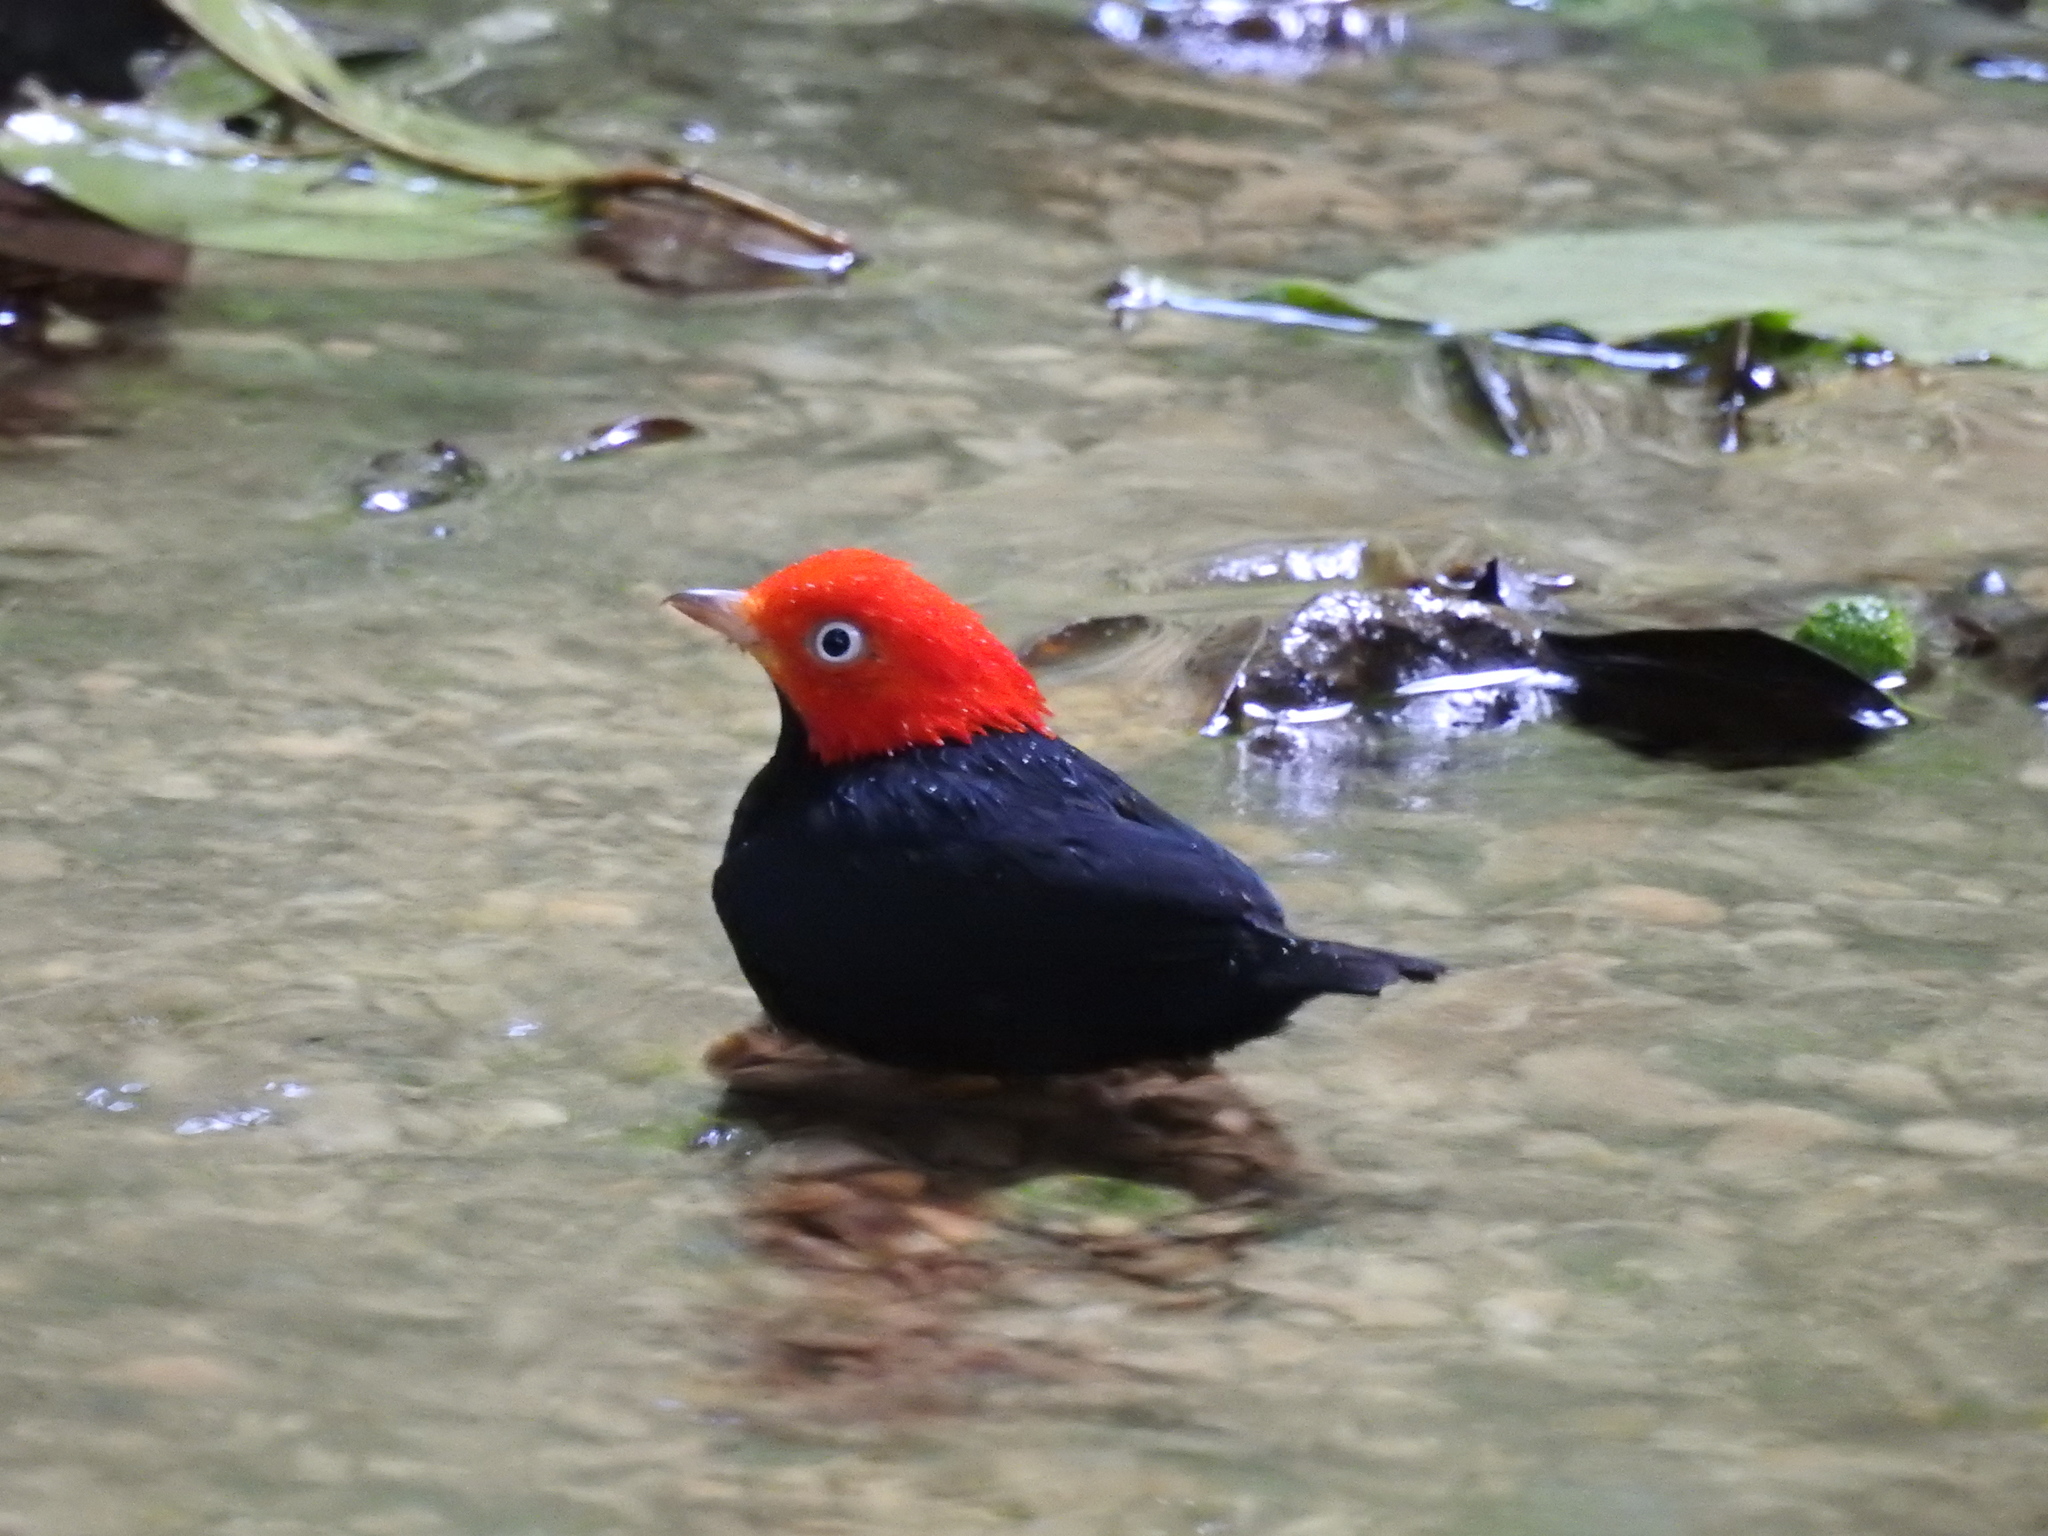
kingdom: Animalia
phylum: Chordata
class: Aves
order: Passeriformes
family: Pipridae
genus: Pipra
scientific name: Pipra mentalis
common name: Red-capped manakin
